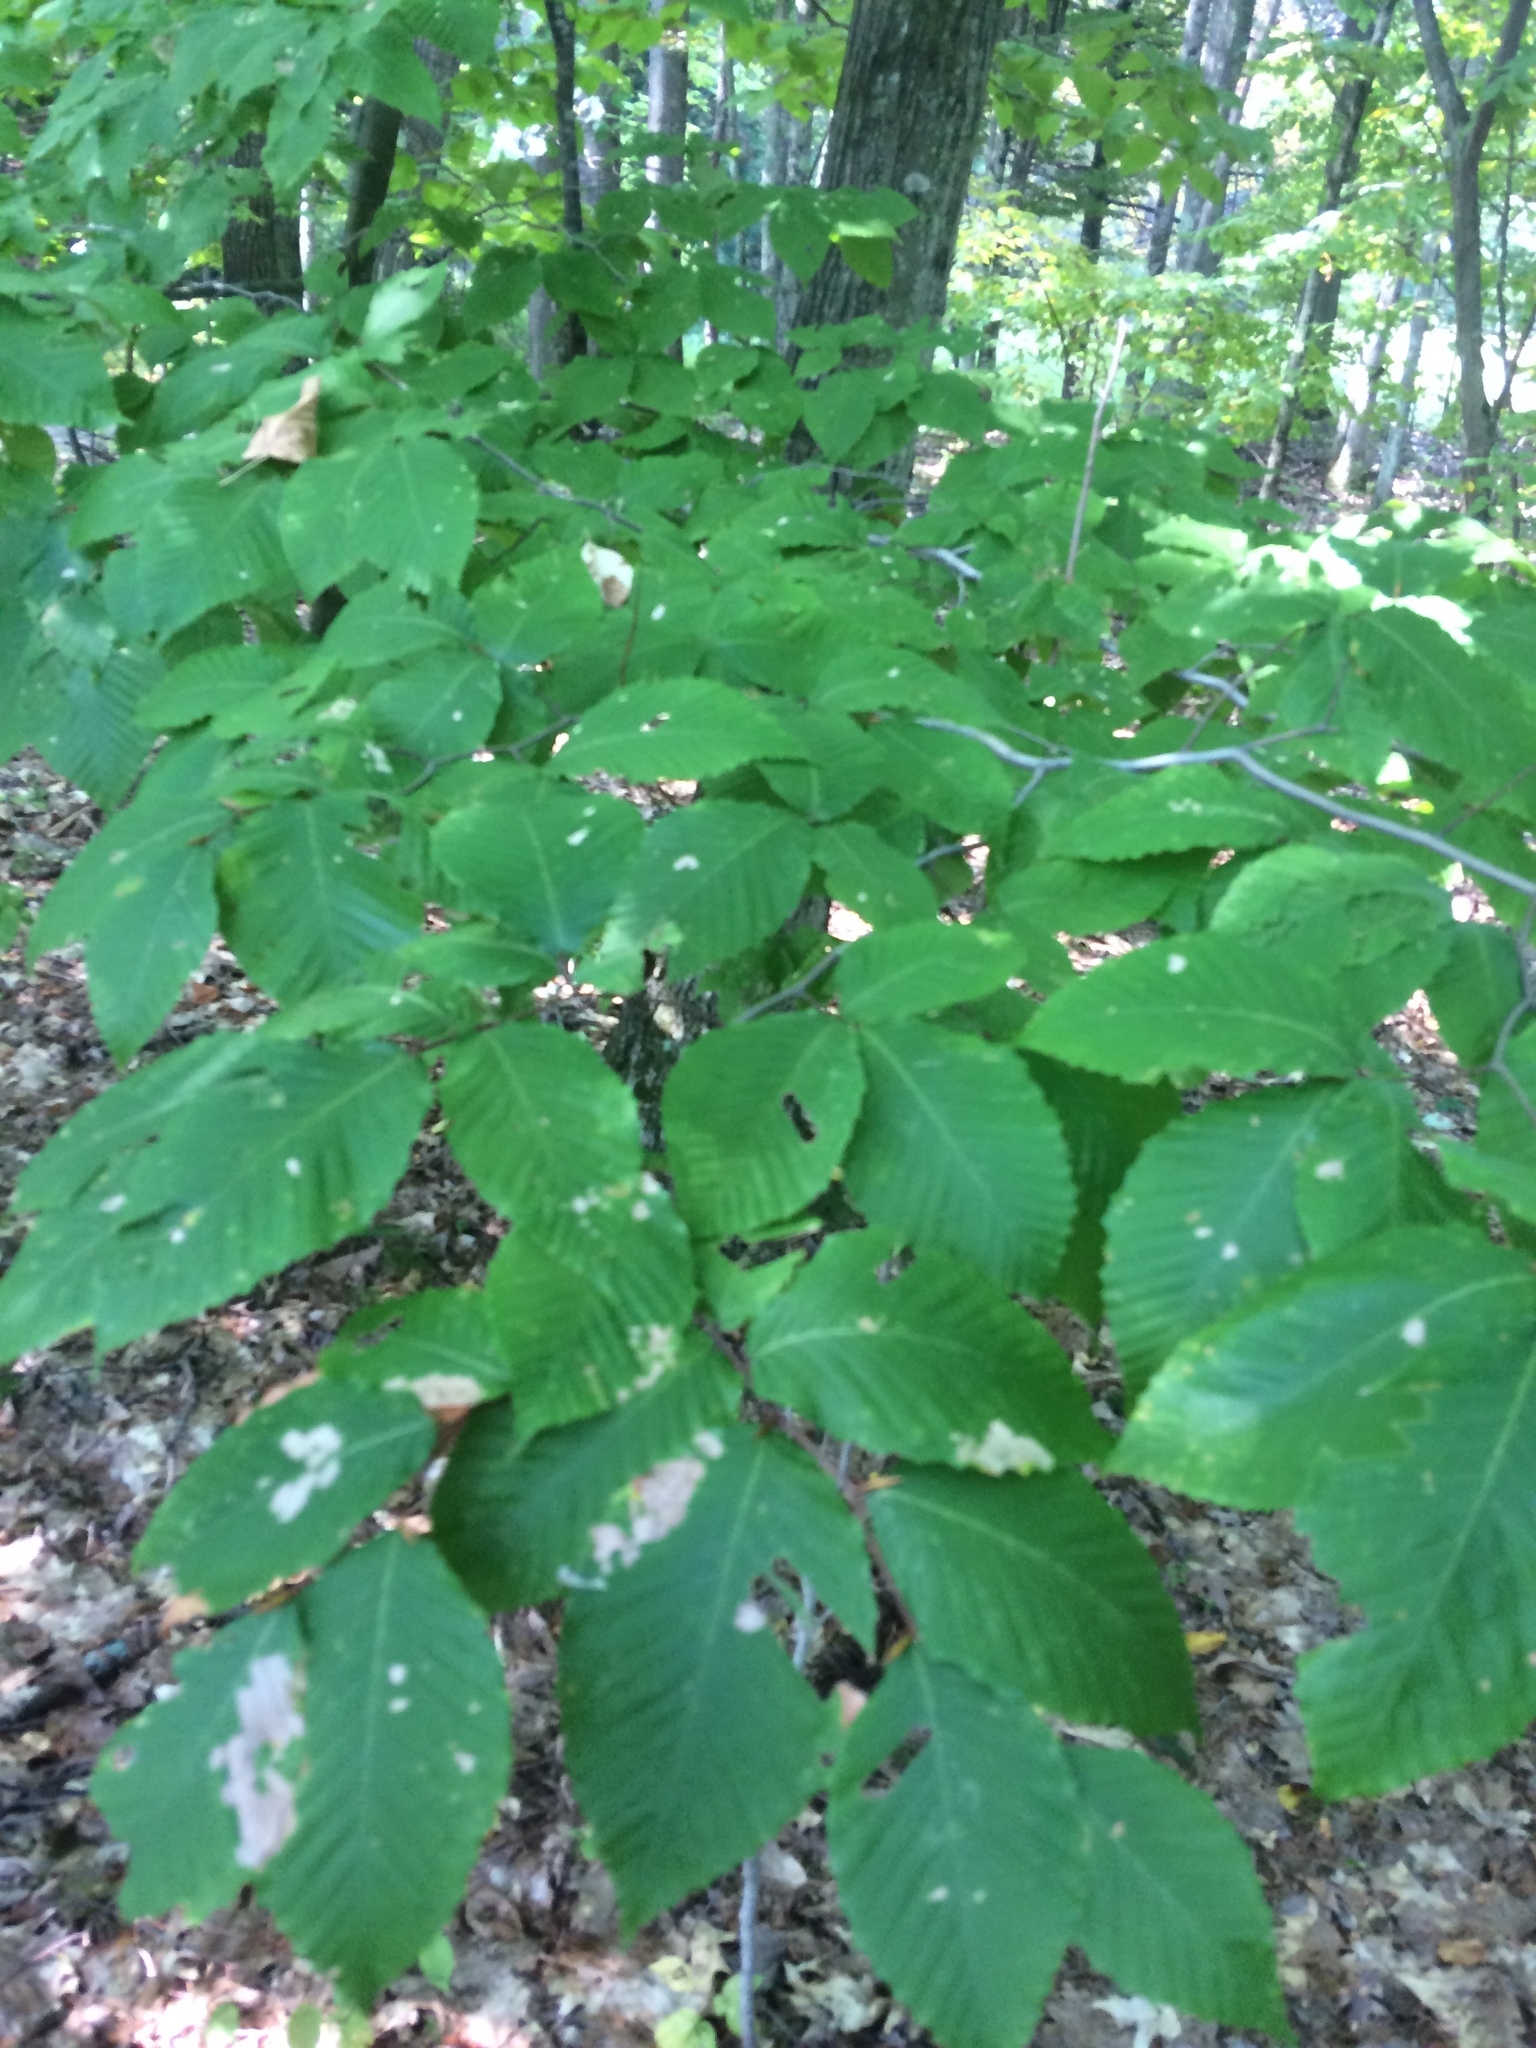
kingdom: Plantae
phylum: Tracheophyta
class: Magnoliopsida
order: Fagales
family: Fagaceae
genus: Fagus
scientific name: Fagus grandifolia
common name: American beech
